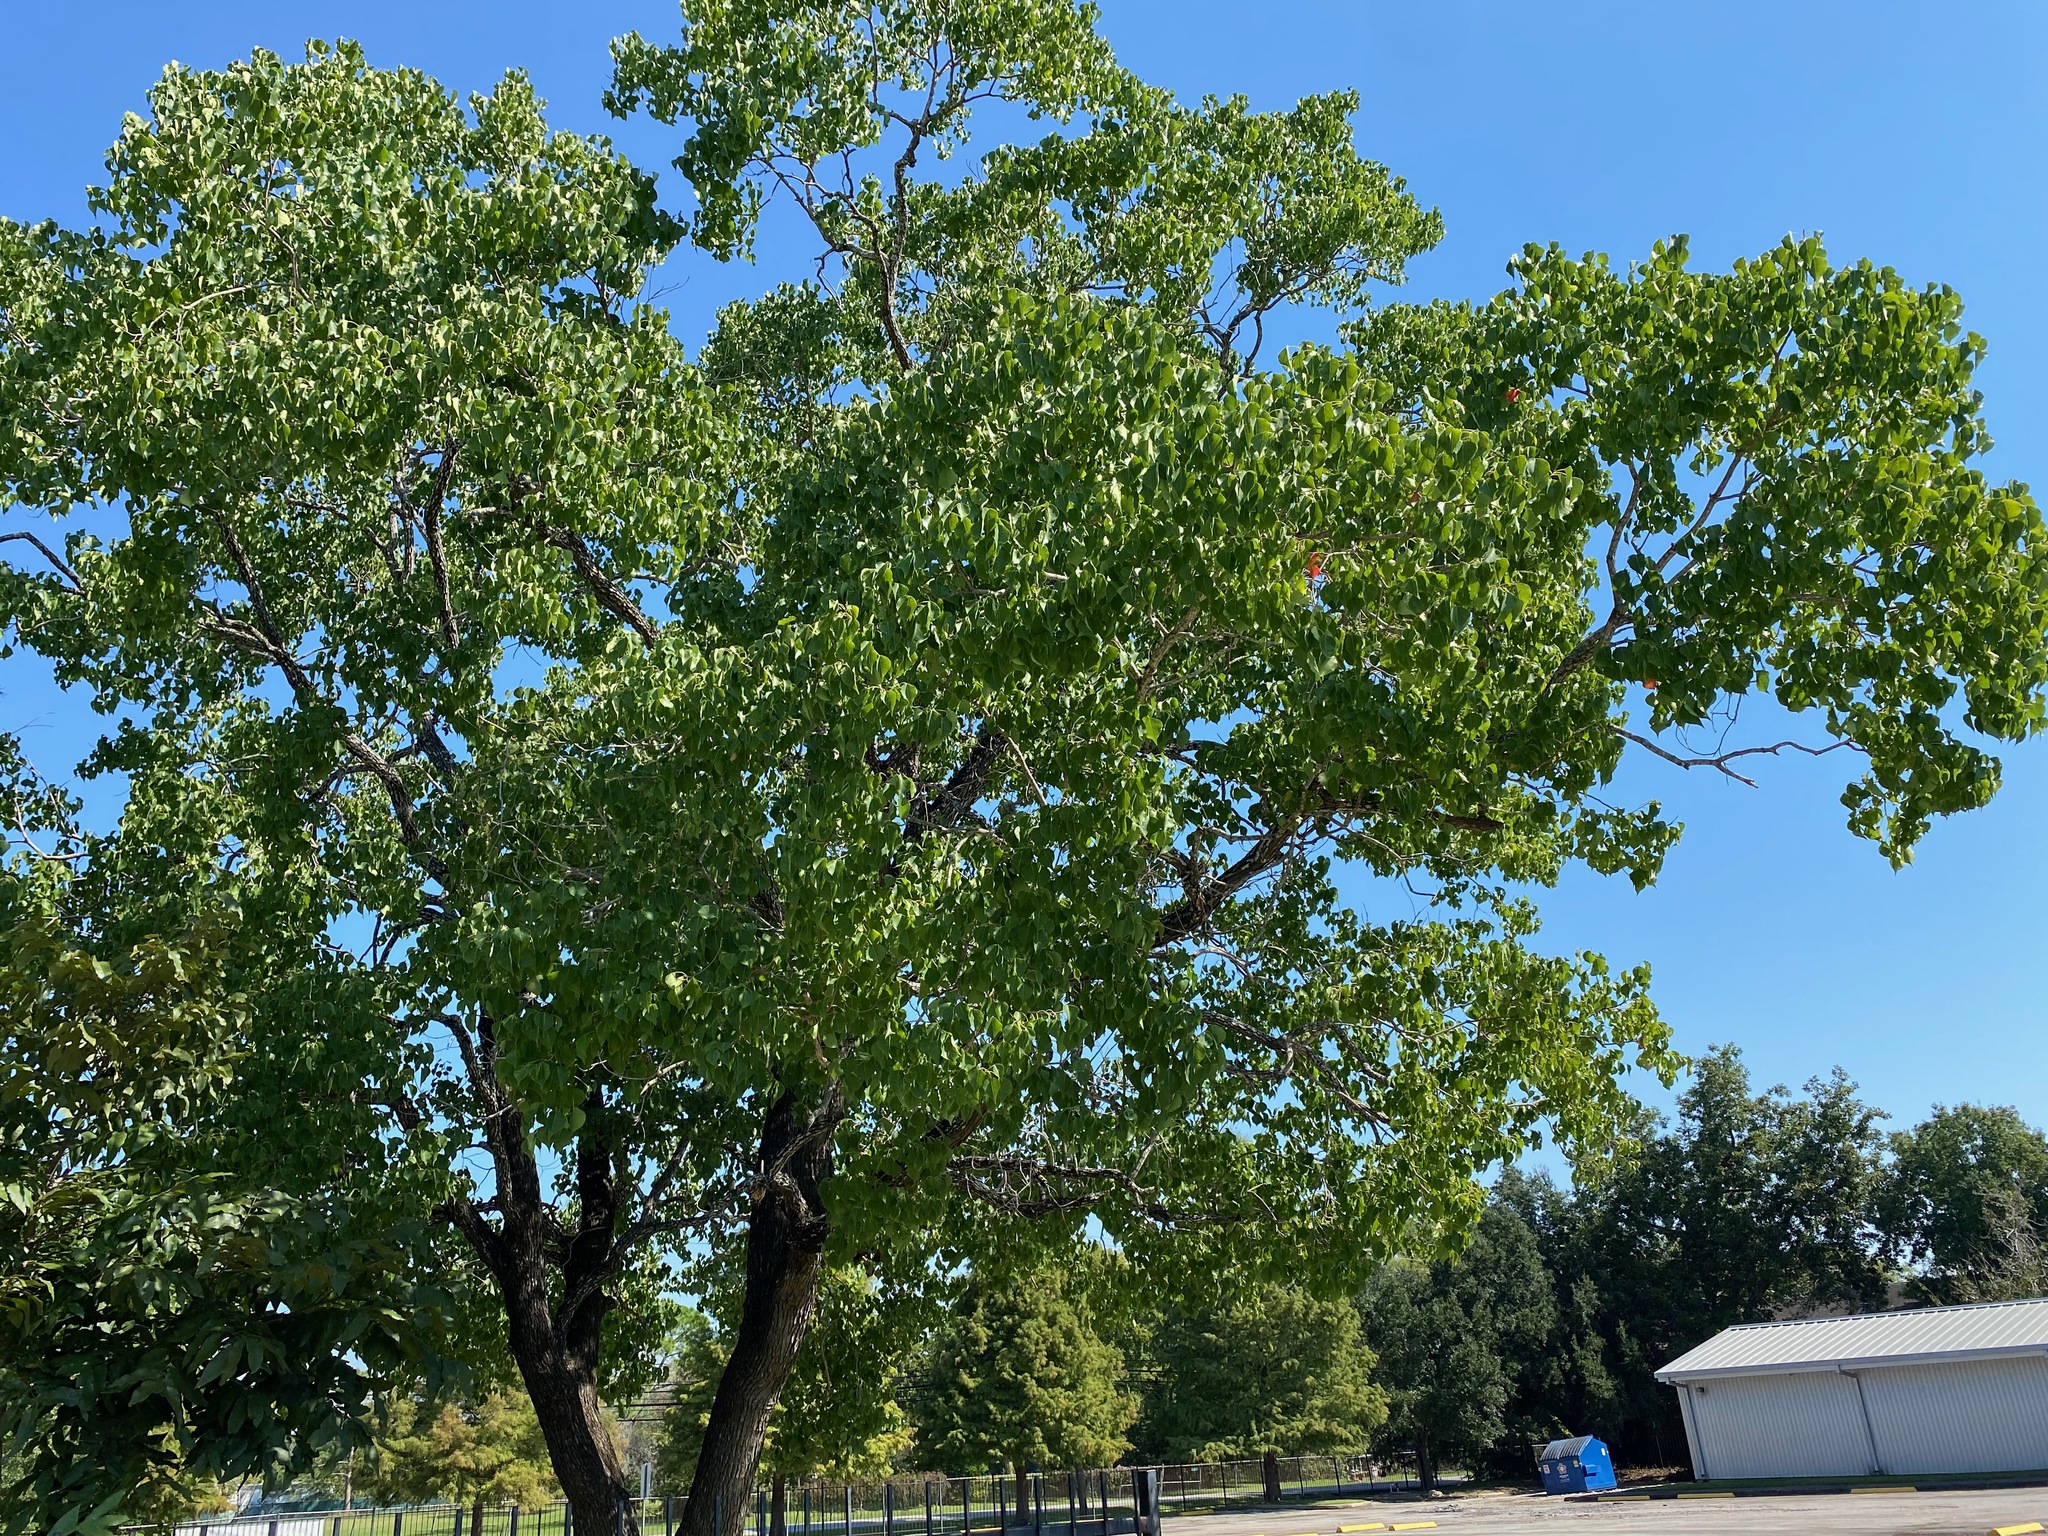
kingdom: Plantae
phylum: Tracheophyta
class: Magnoliopsida
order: Malpighiales
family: Euphorbiaceae
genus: Triadica
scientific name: Triadica sebifera
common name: Chinese tallow
